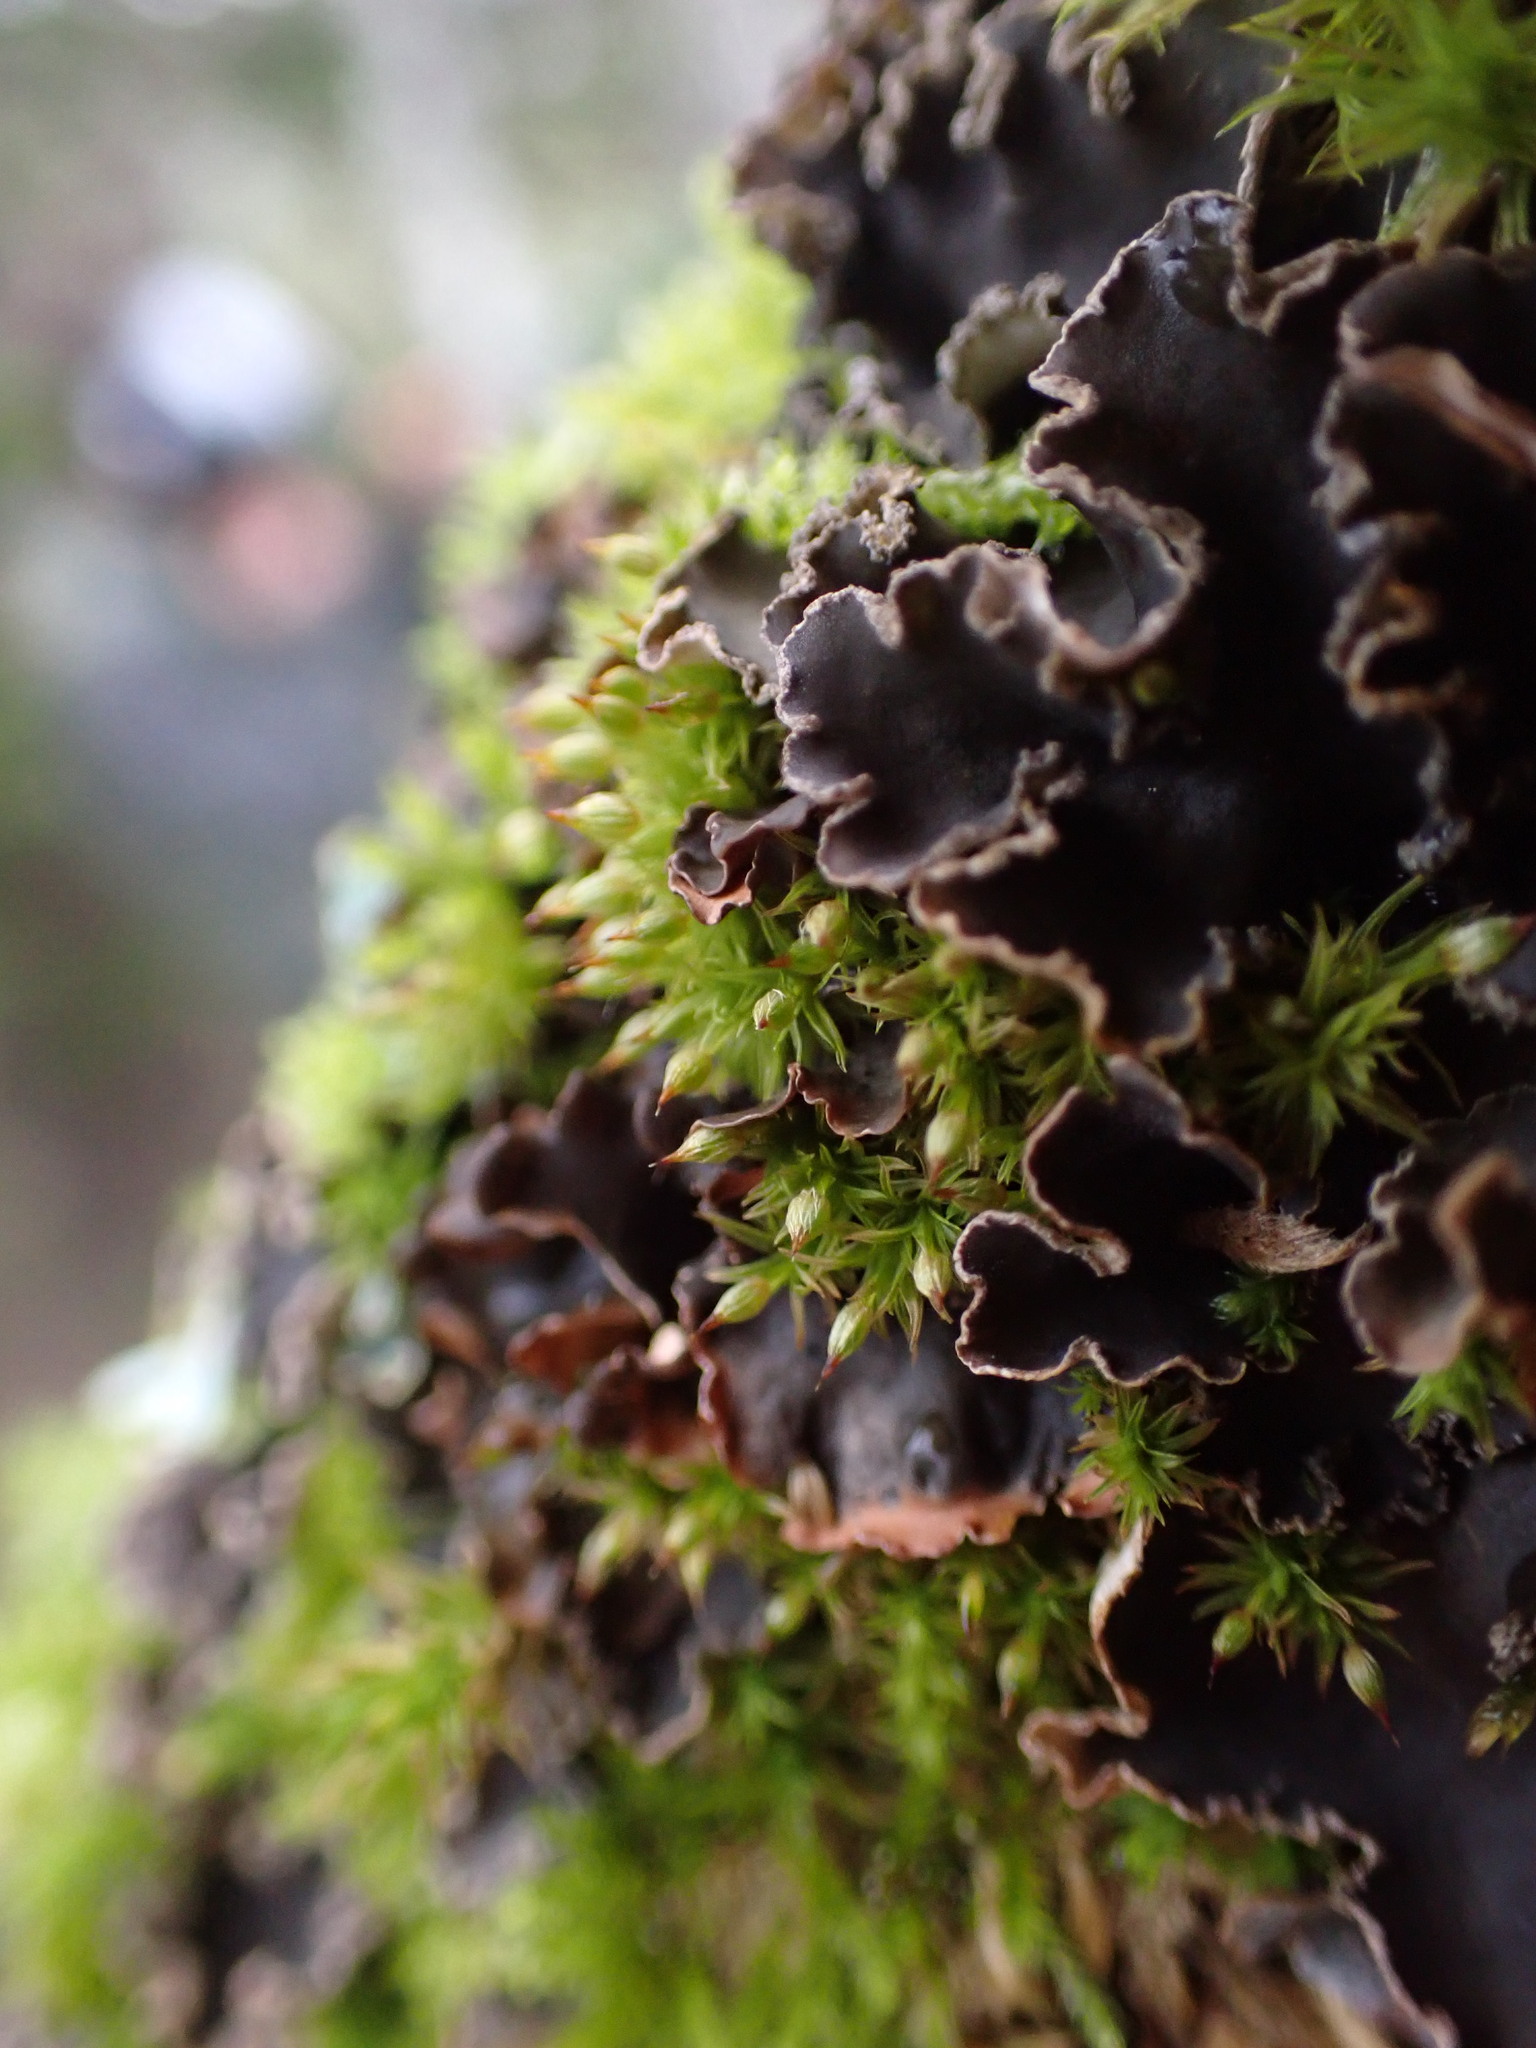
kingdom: Fungi
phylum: Ascomycota
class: Lecanoromycetes
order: Peltigerales
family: Peltigeraceae
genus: Peltigera
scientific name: Peltigera collina
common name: Gritty tree pelt lichen
